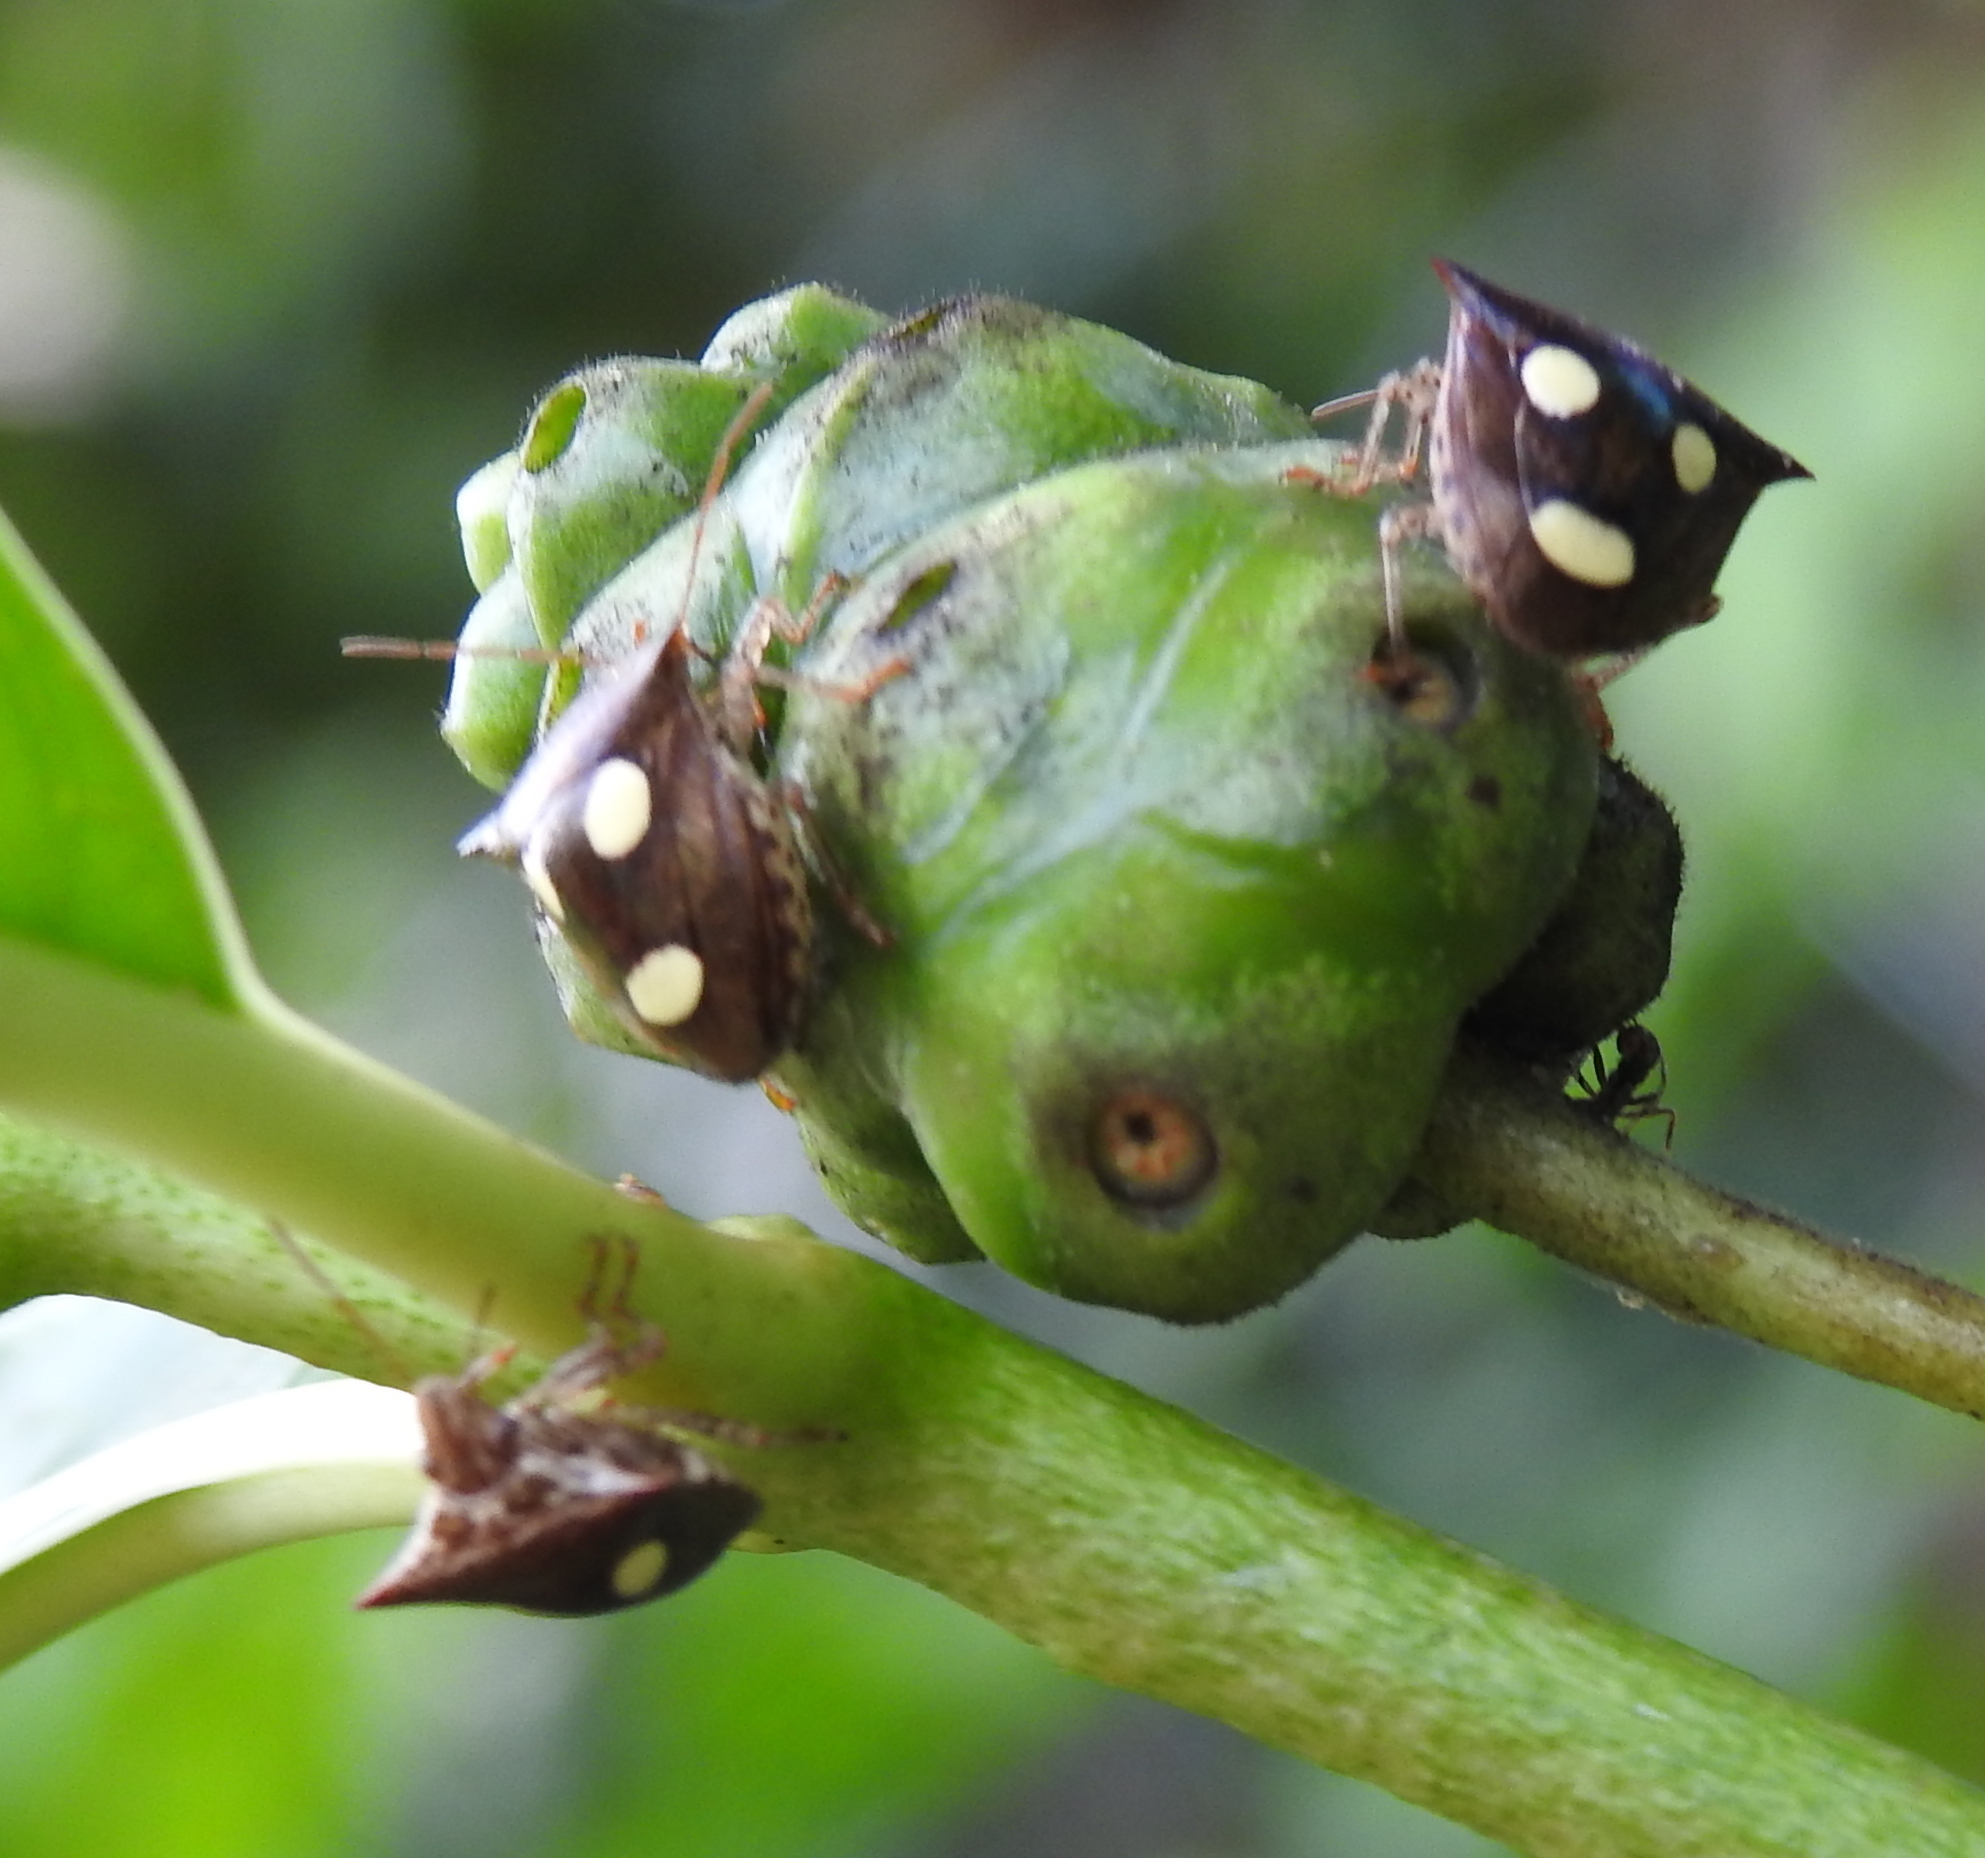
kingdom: Animalia
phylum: Arthropoda
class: Insecta
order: Hemiptera
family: Pentatomidae
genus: Paracritheus
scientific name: Paracritheus
